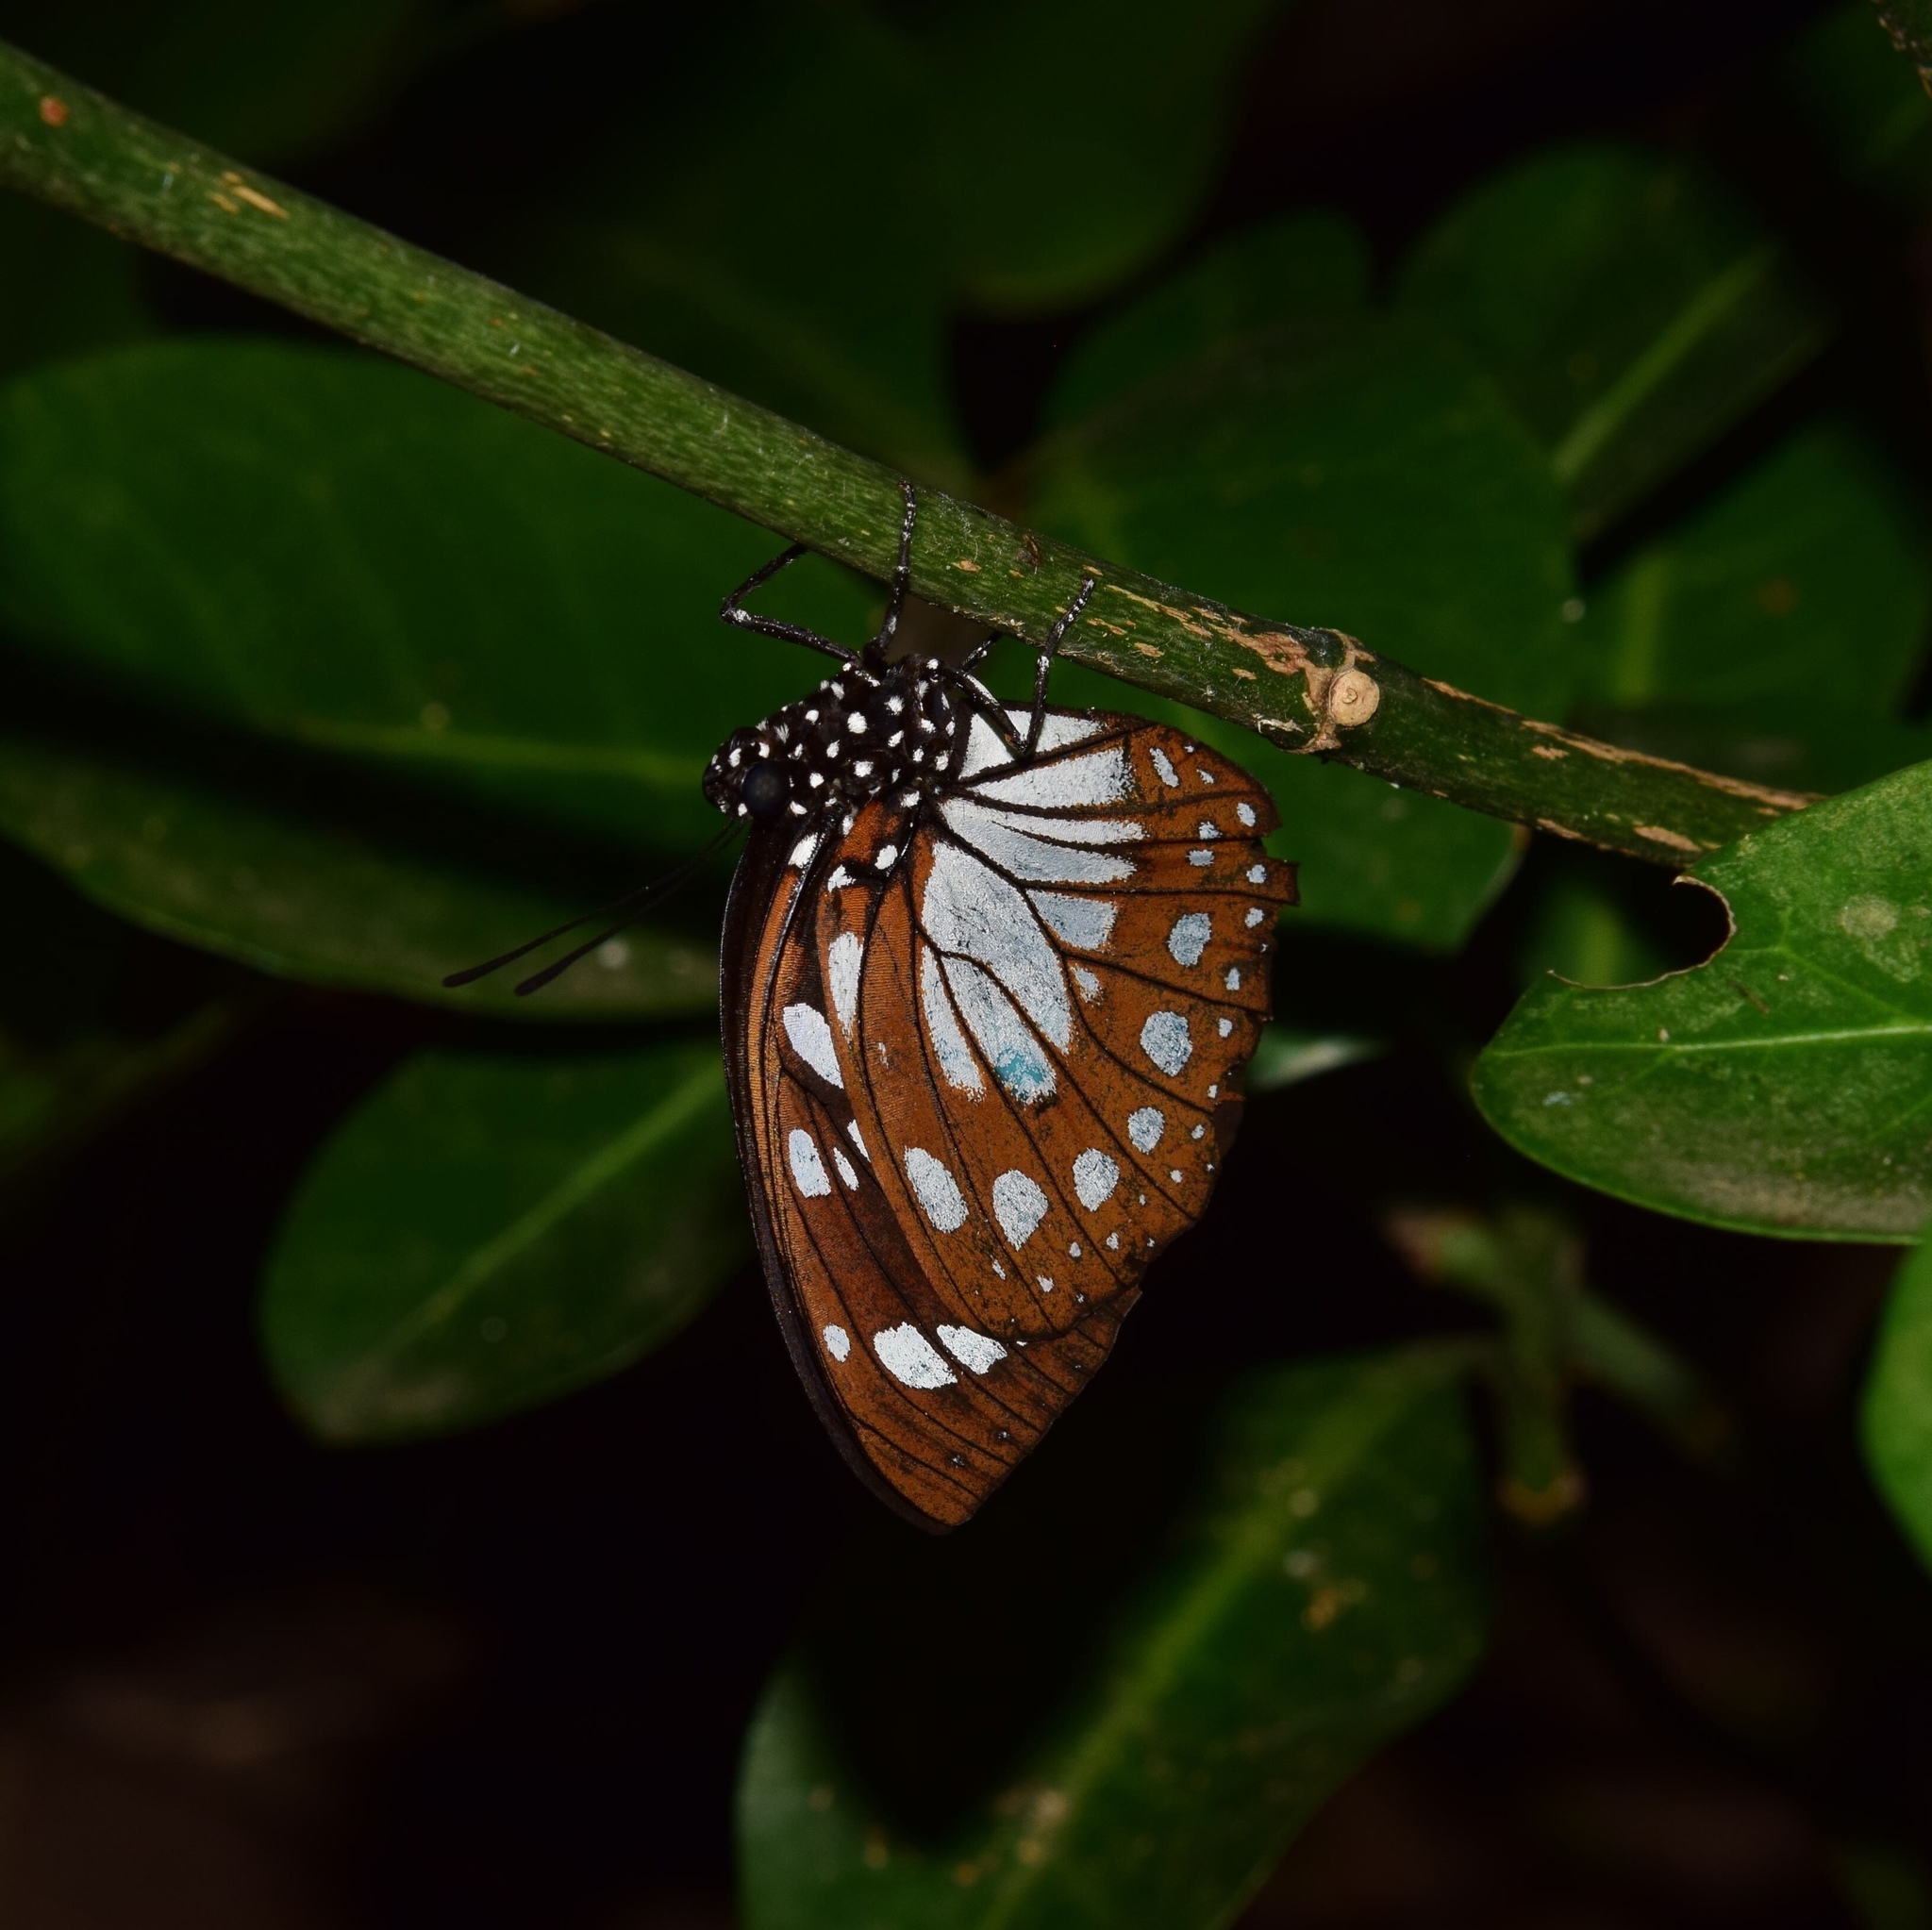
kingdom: Animalia
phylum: Arthropoda
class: Insecta
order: Lepidoptera
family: Nymphalidae
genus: Charaxes
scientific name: Charaxes wakefieldi
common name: Forest queen
